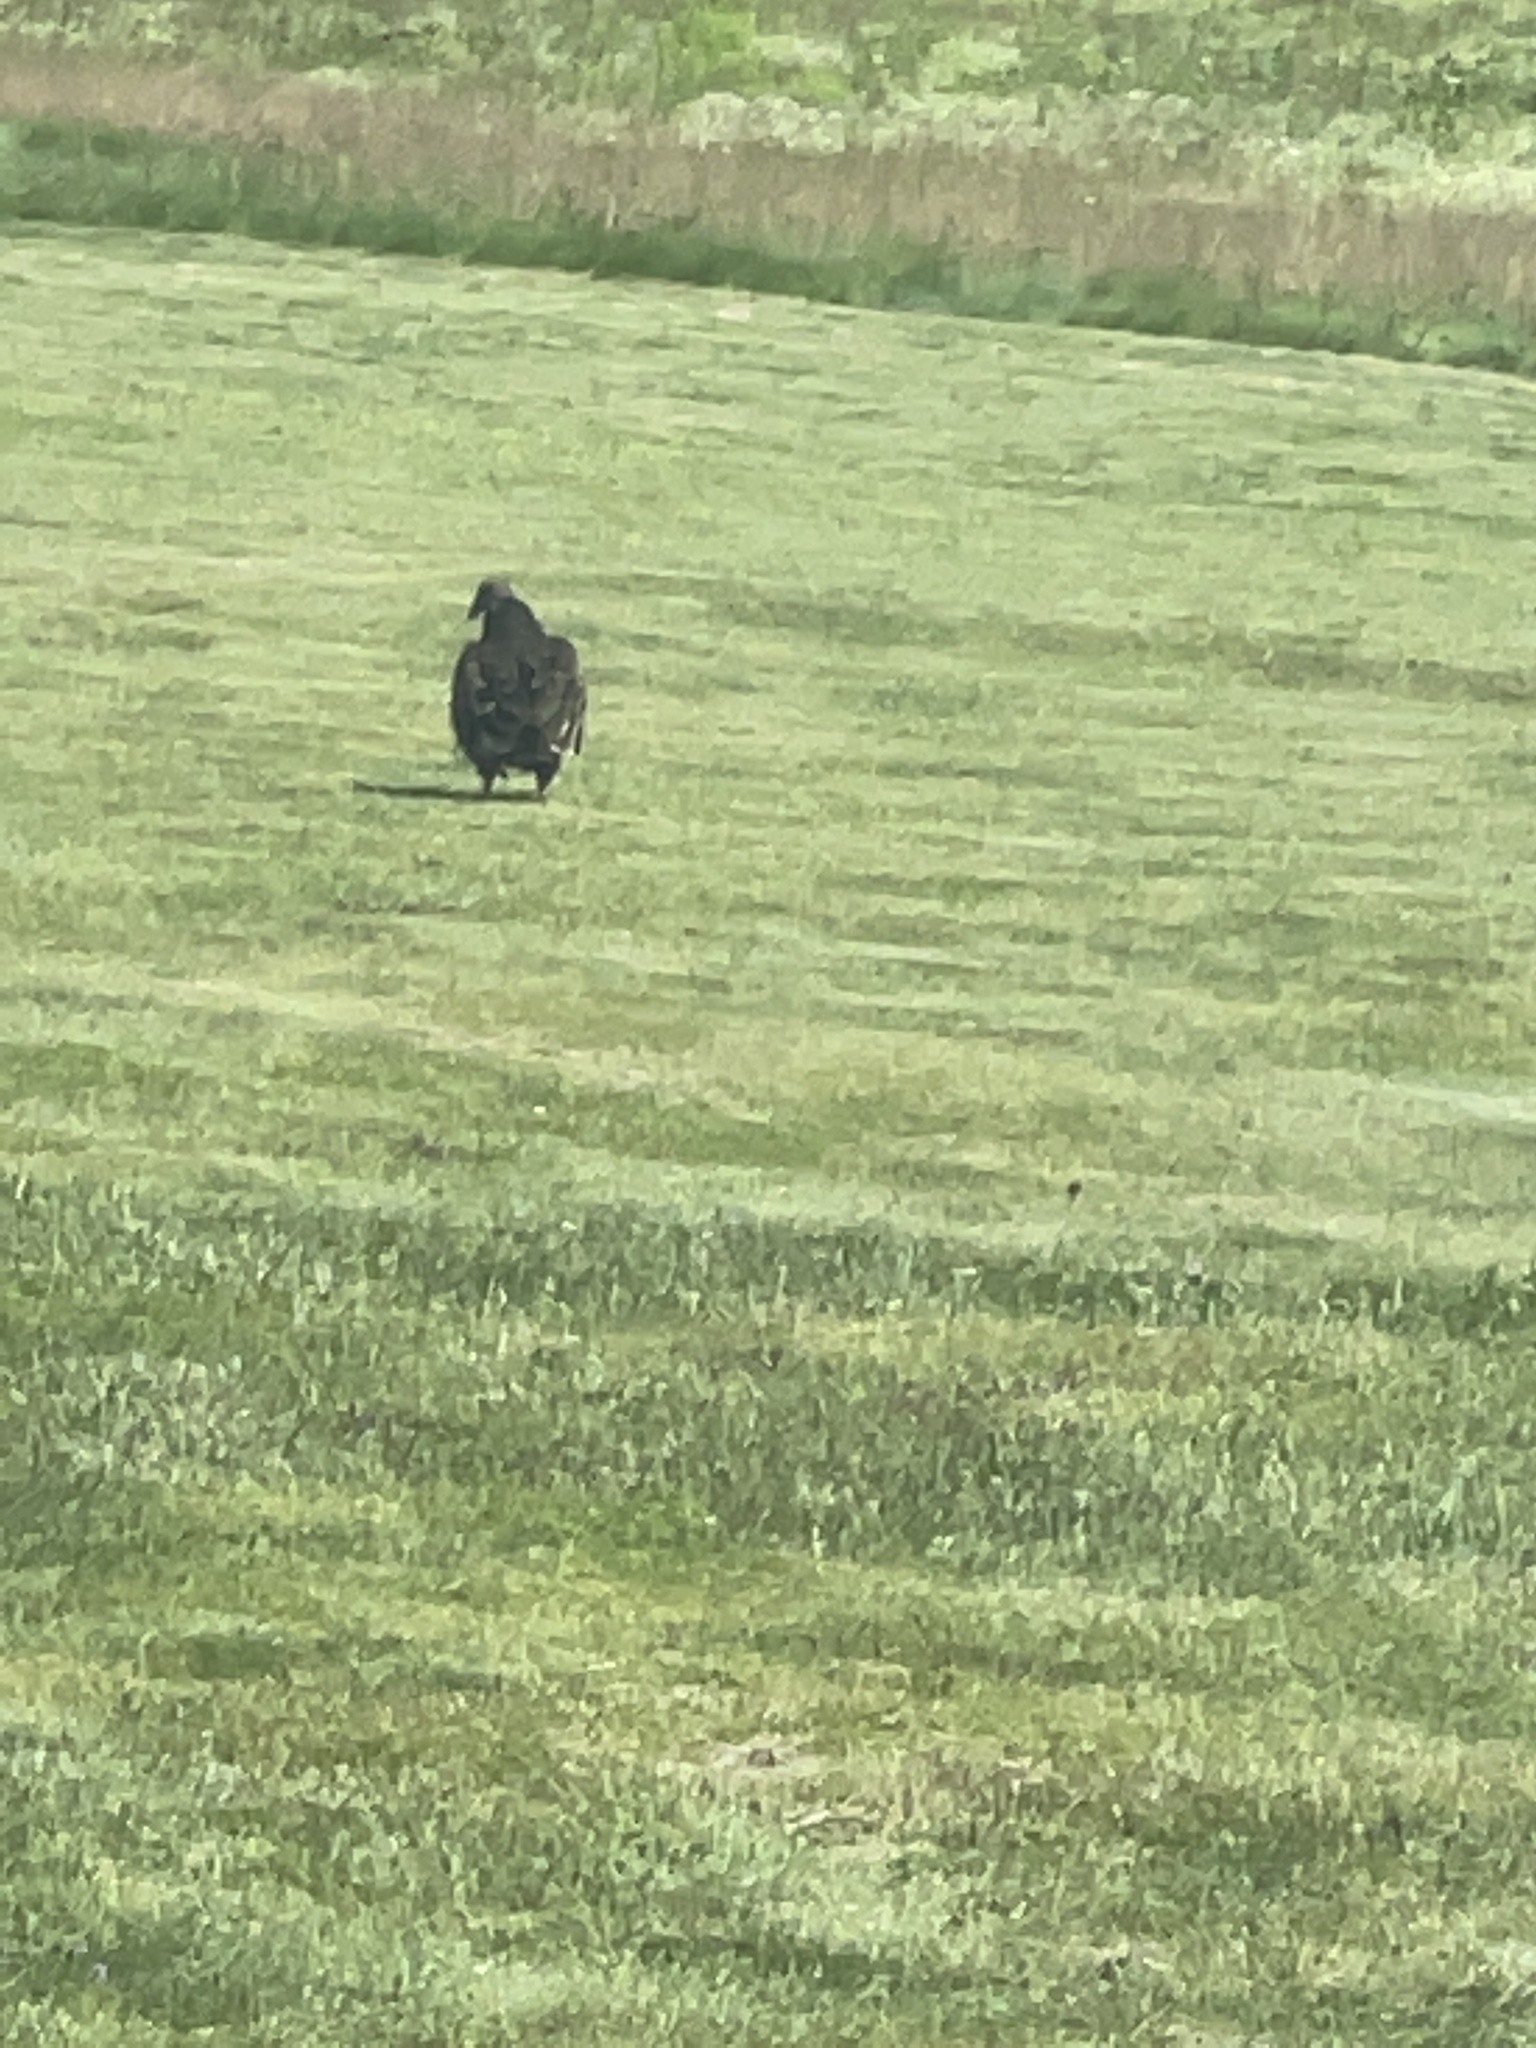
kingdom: Animalia
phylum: Chordata
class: Aves
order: Accipitriformes
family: Cathartidae
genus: Cathartes
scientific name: Cathartes aura
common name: Turkey vulture
